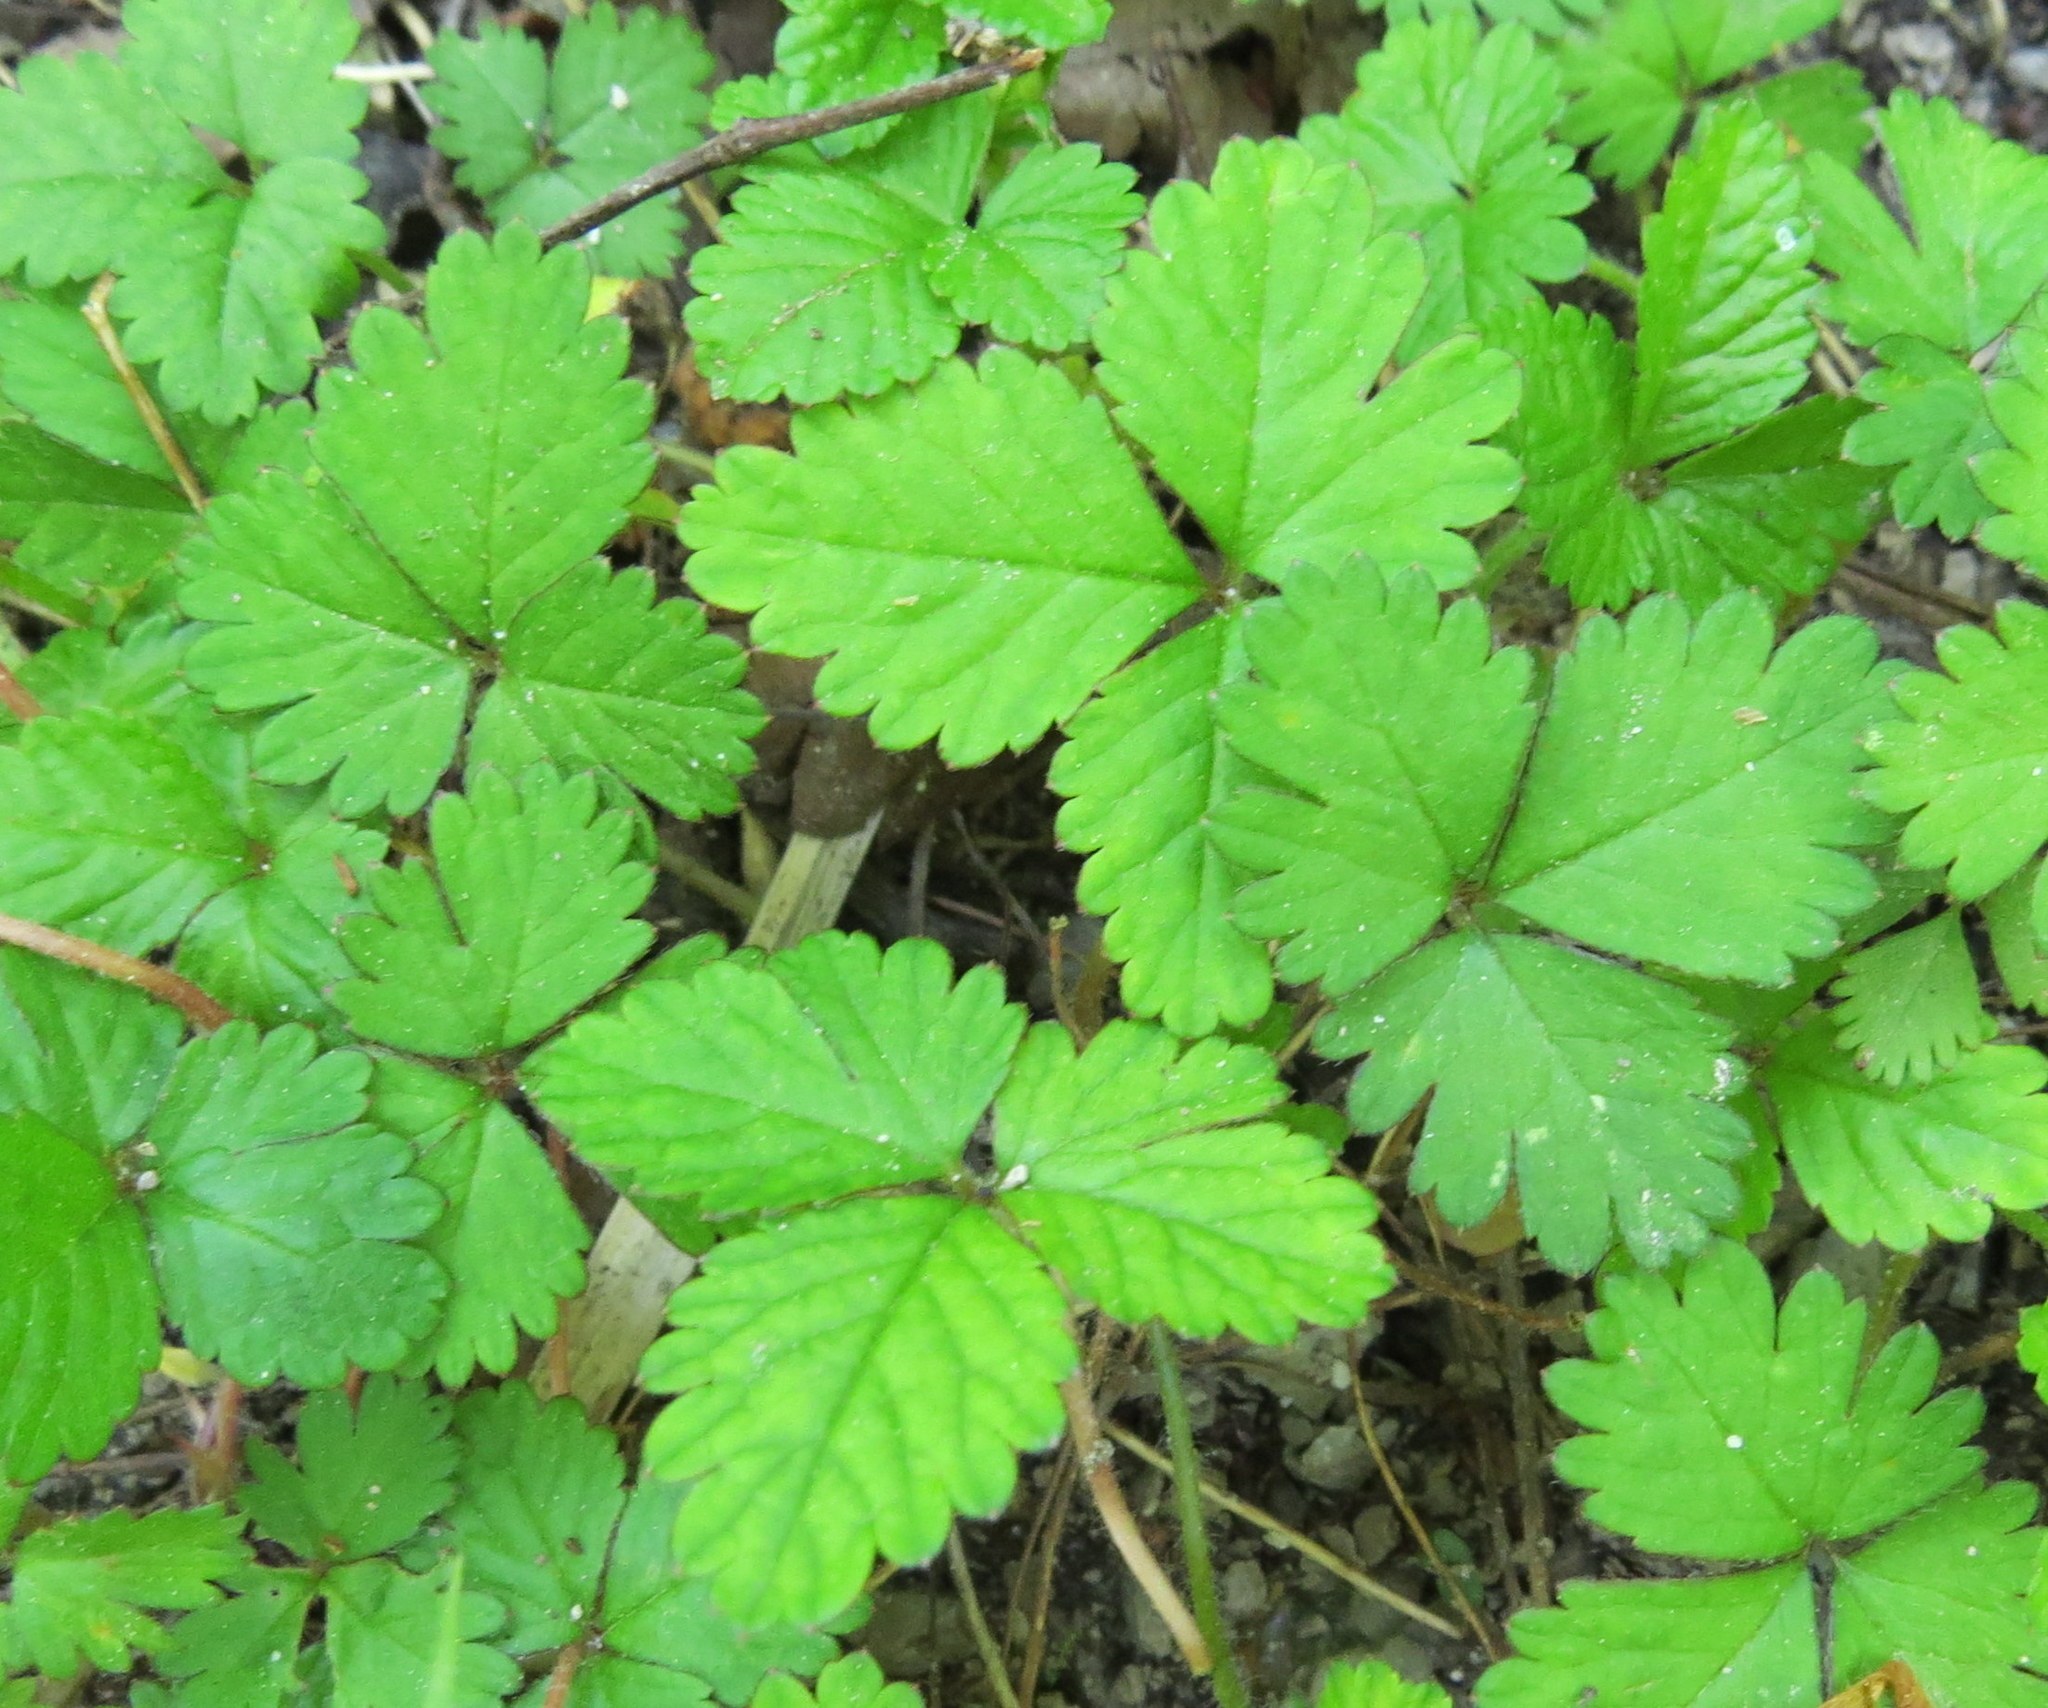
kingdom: Plantae
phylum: Tracheophyta
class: Magnoliopsida
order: Rosales
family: Rosaceae
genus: Potentilla
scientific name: Potentilla indica
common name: Yellow-flowered strawberry
